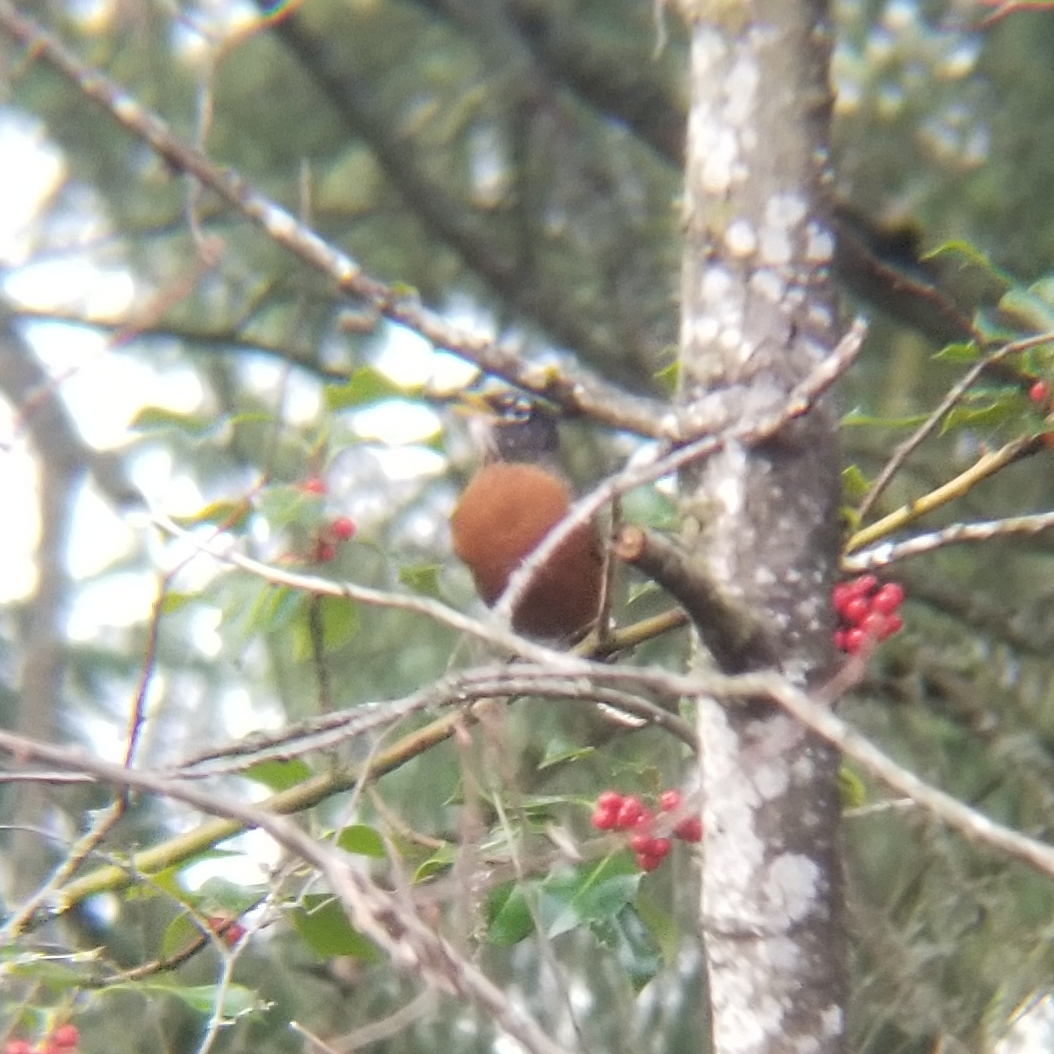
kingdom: Animalia
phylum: Chordata
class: Aves
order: Passeriformes
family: Turdidae
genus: Turdus
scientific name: Turdus migratorius
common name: American robin
